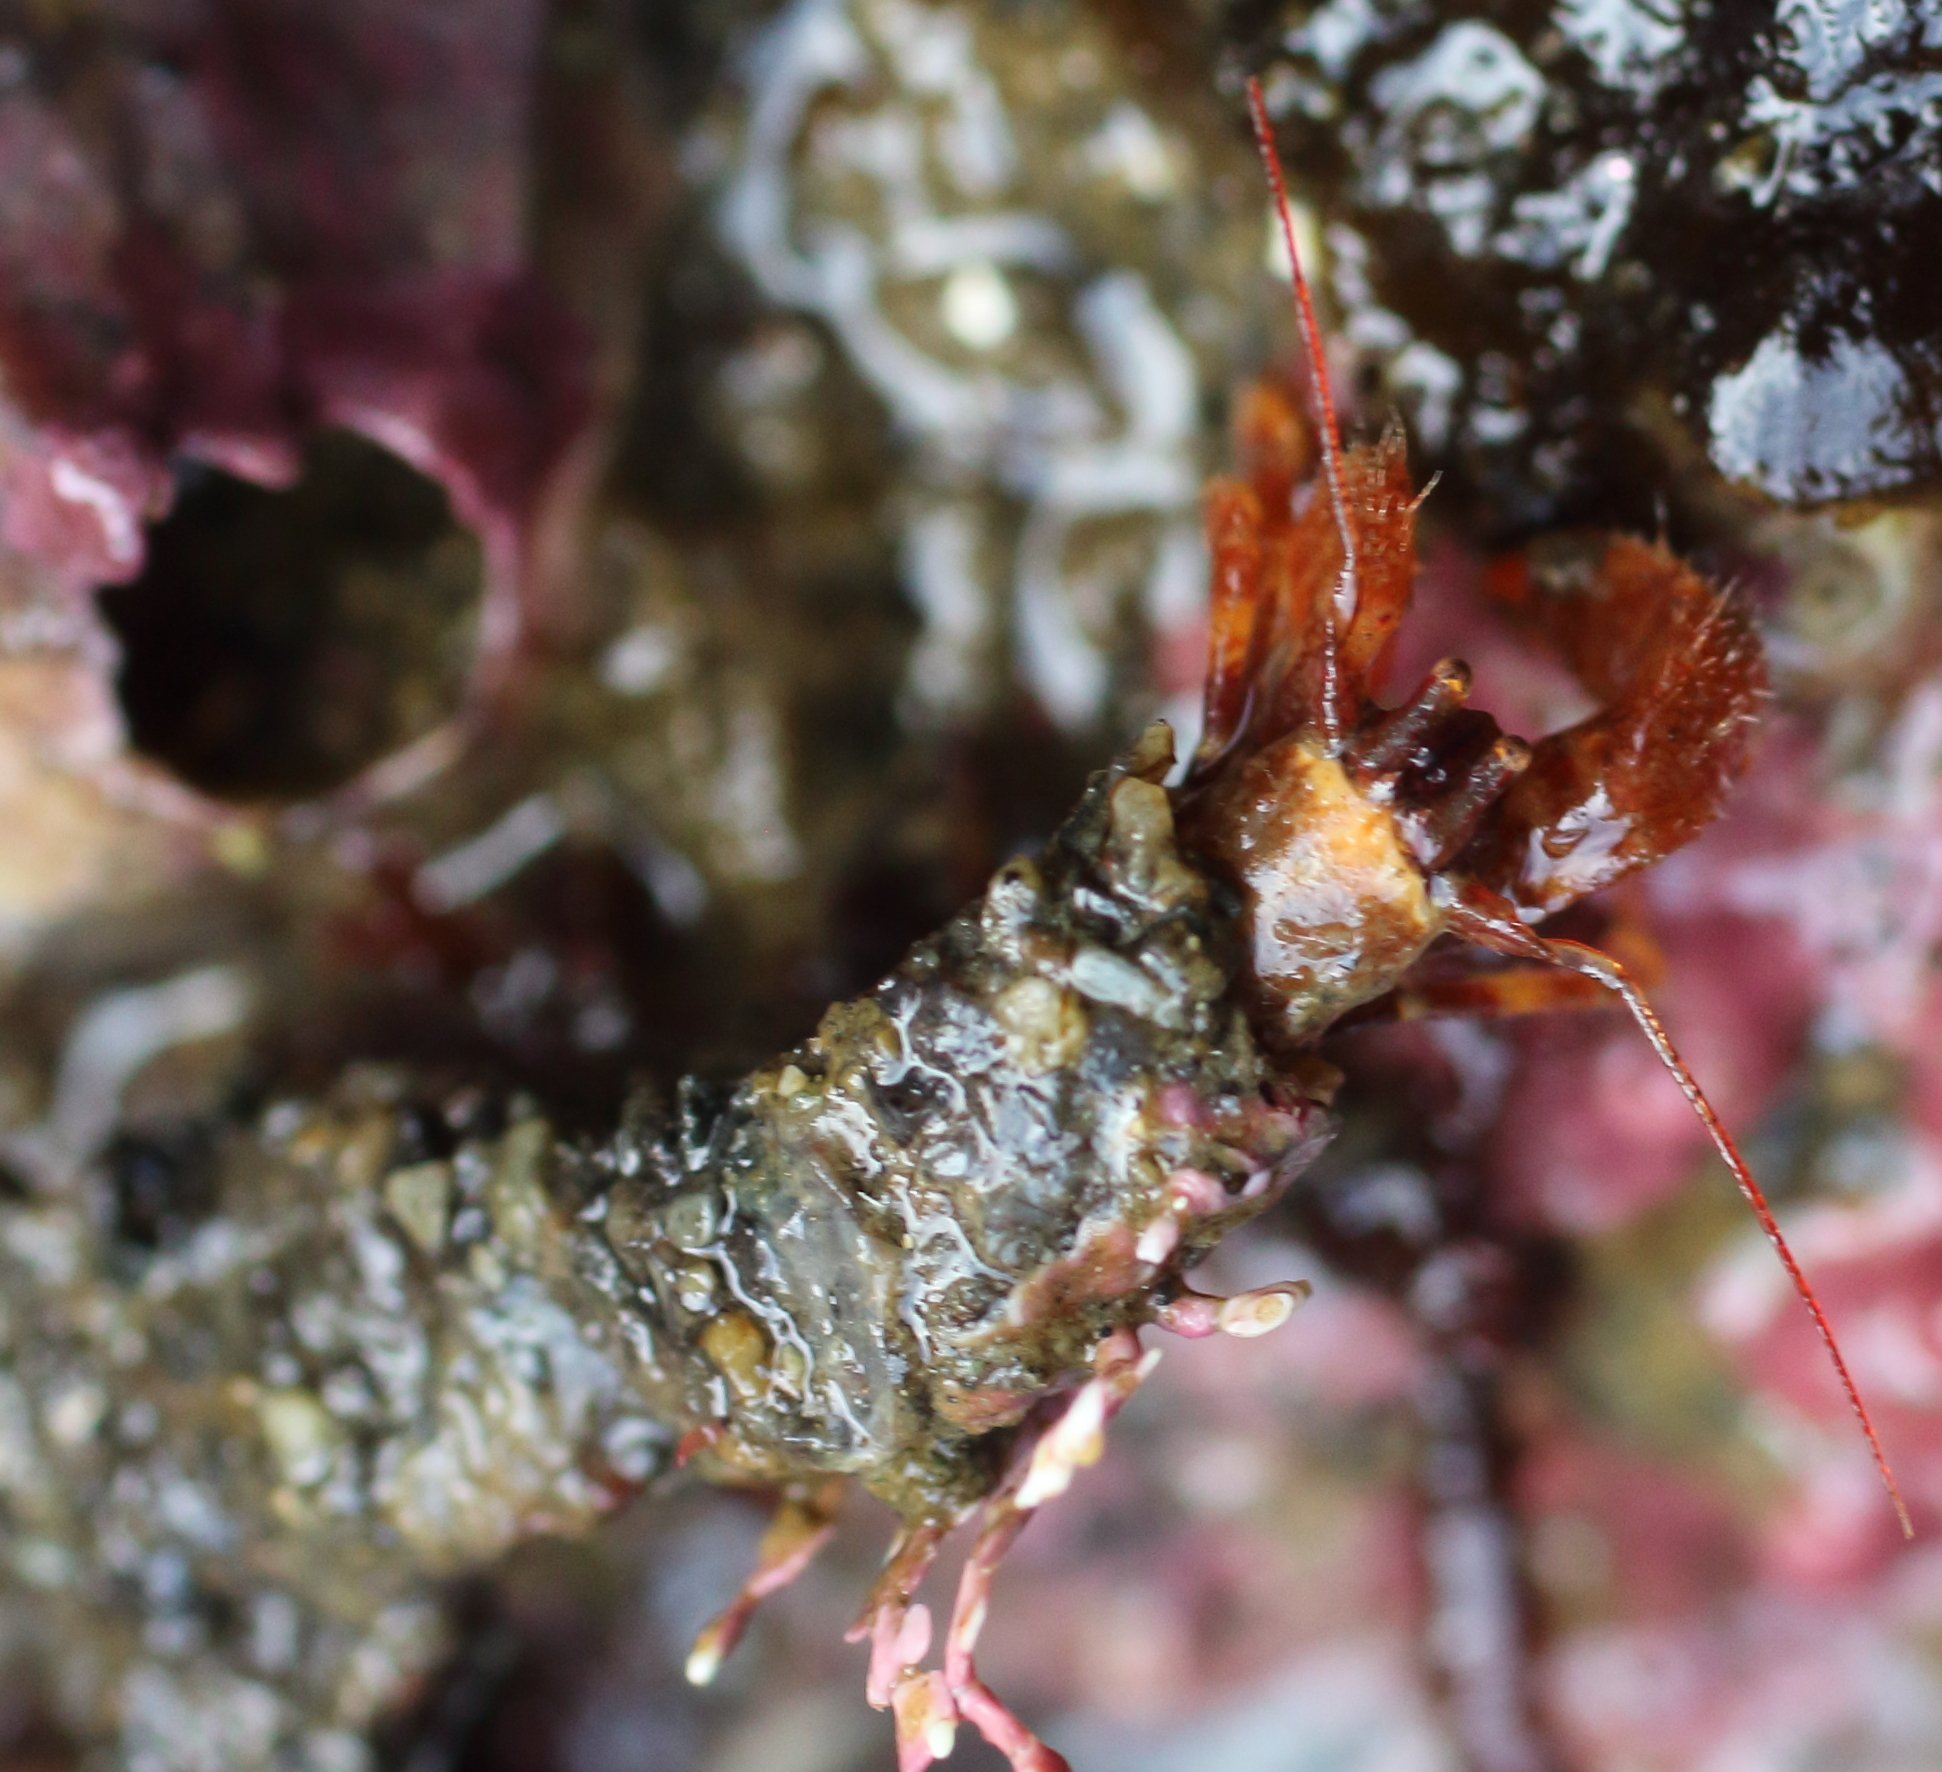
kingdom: Animalia
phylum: Arthropoda
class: Malacostraca
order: Decapoda
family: Paguridae
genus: Discorsopagurus
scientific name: Discorsopagurus schmitti
